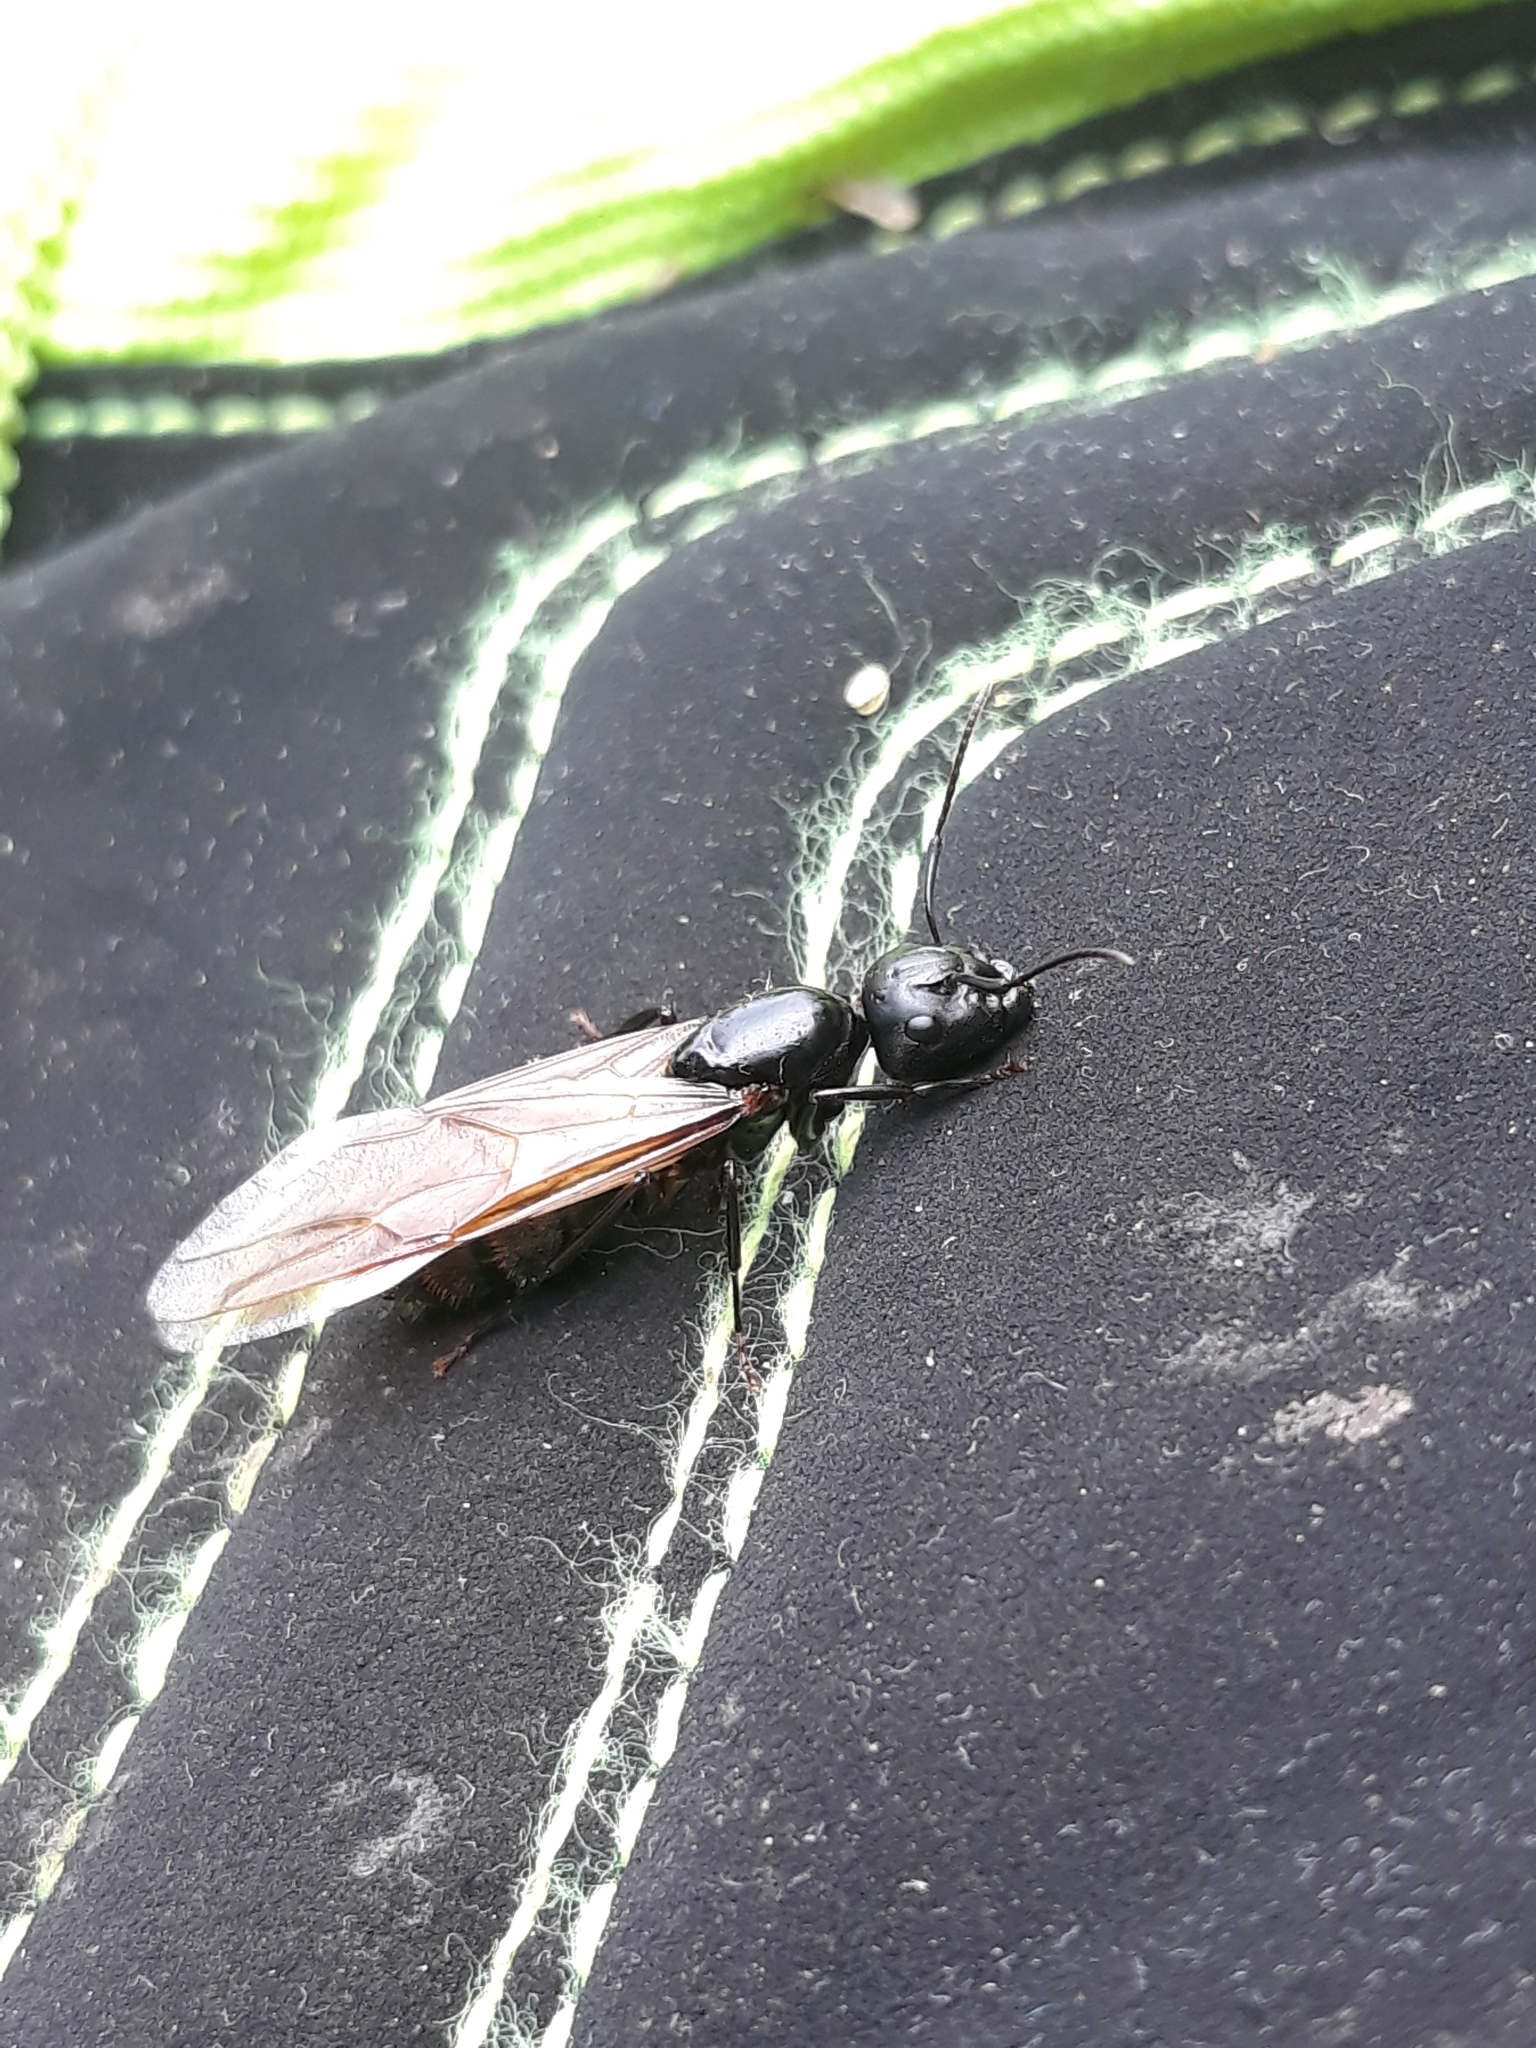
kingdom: Animalia
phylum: Arthropoda
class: Insecta
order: Hymenoptera
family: Formicidae
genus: Camponotus
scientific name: Camponotus pennsylvanicus
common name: Black carpenter ant
